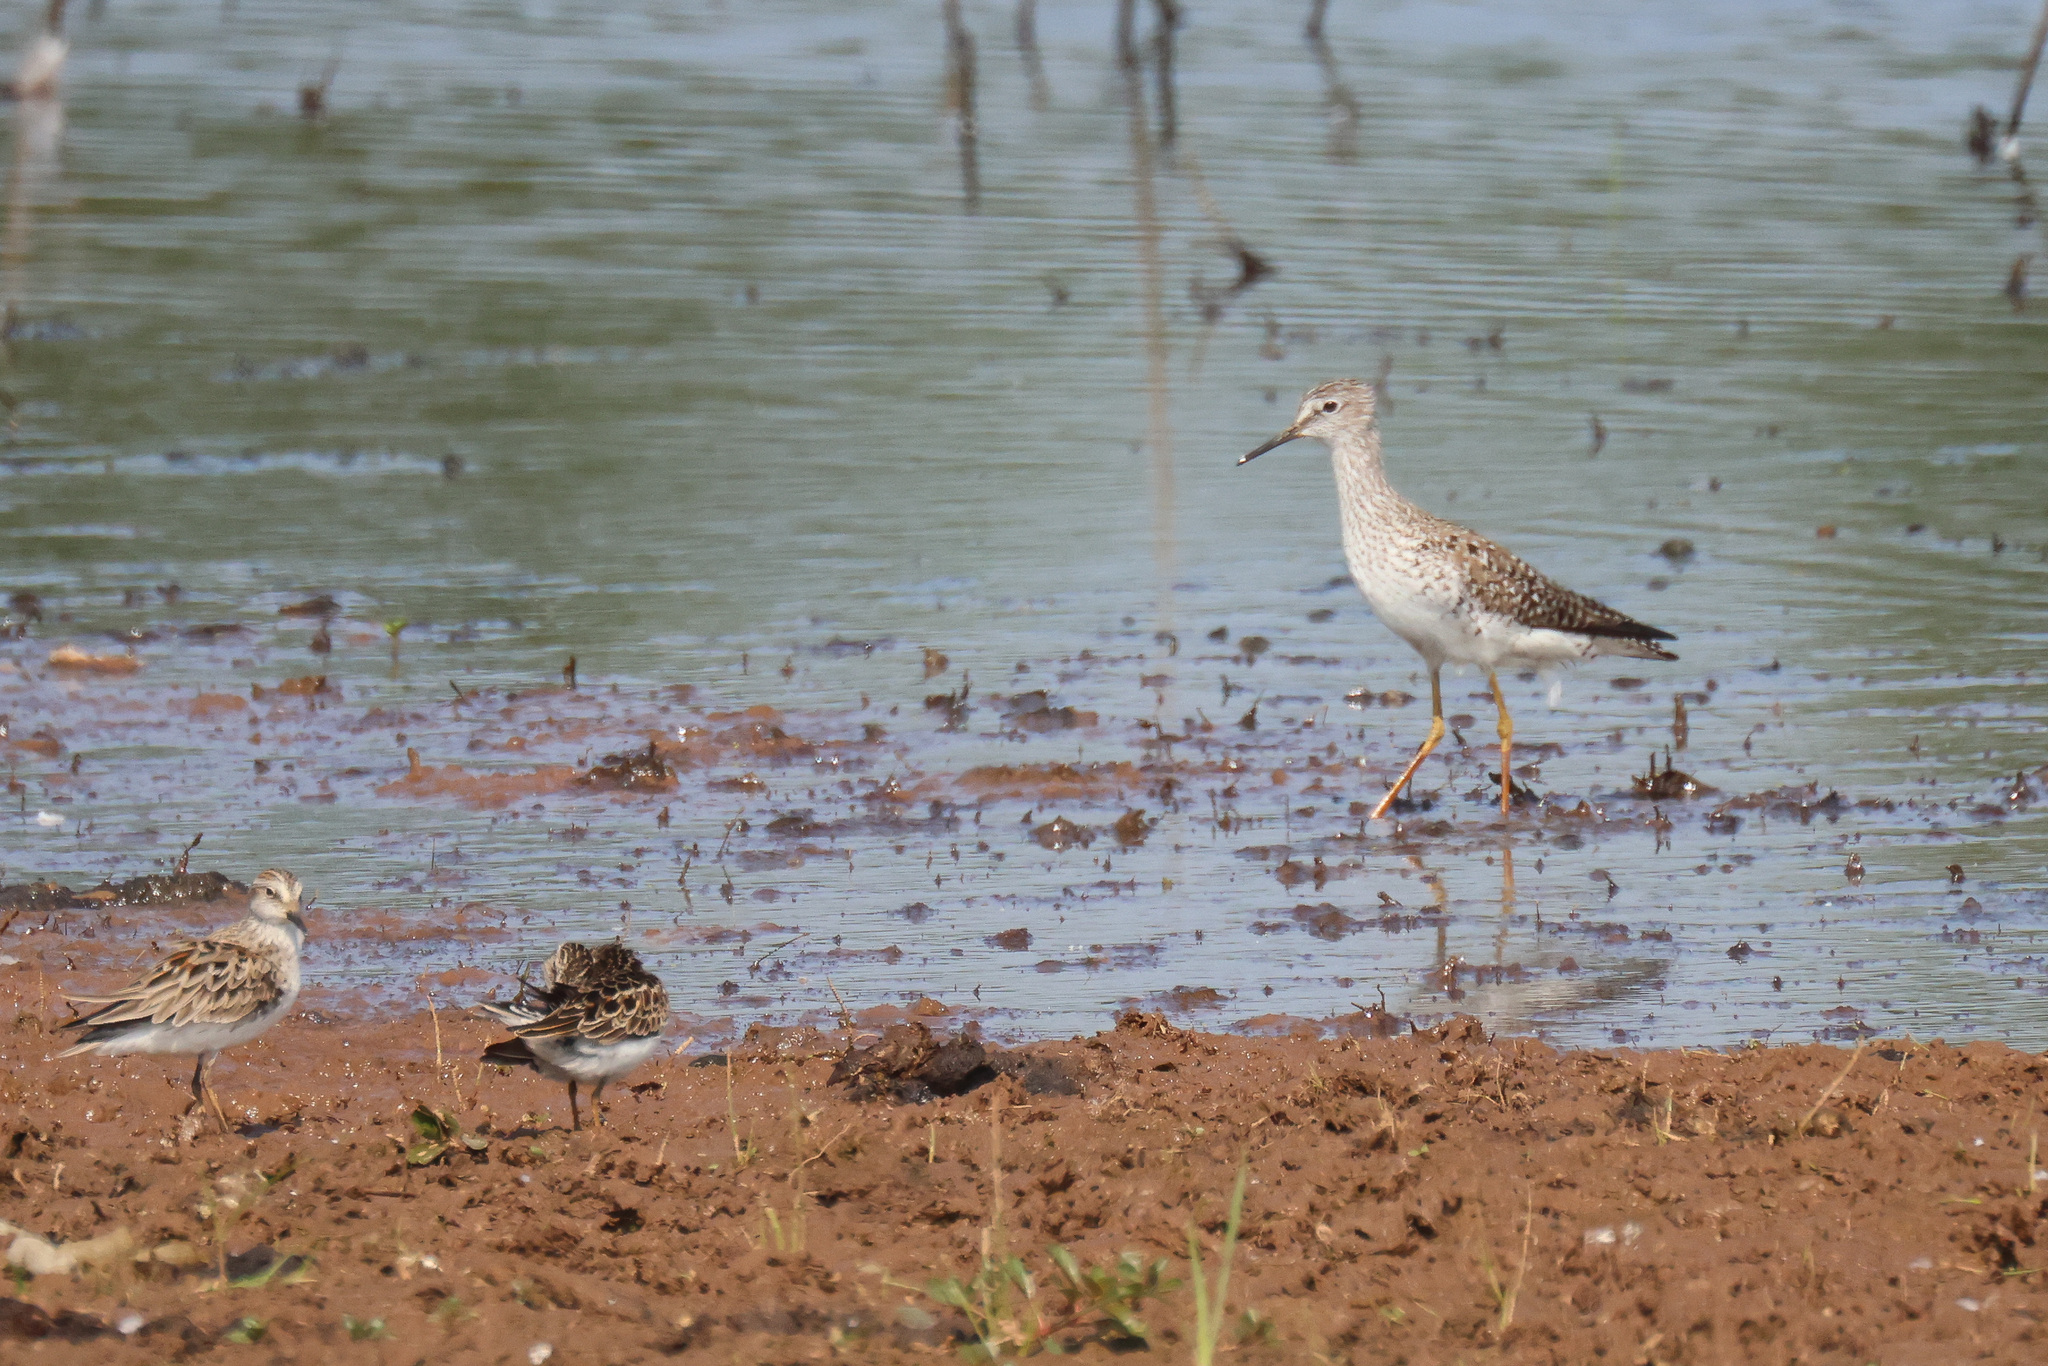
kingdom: Animalia
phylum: Chordata
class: Aves
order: Charadriiformes
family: Scolopacidae
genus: Tringa
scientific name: Tringa flavipes
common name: Lesser yellowlegs
